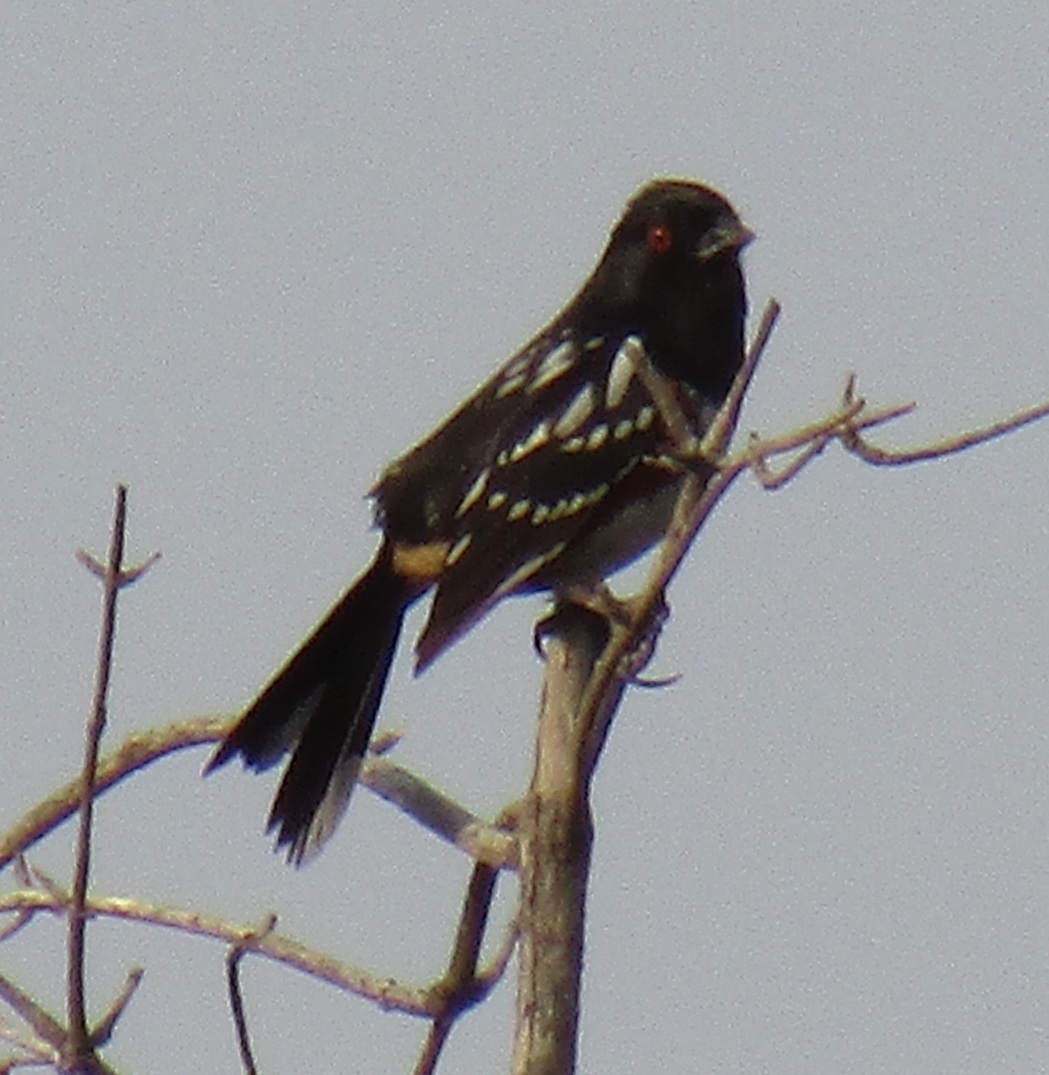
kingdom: Animalia
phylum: Chordata
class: Aves
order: Passeriformes
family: Passerellidae
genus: Pipilo
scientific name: Pipilo maculatus
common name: Spotted towhee
